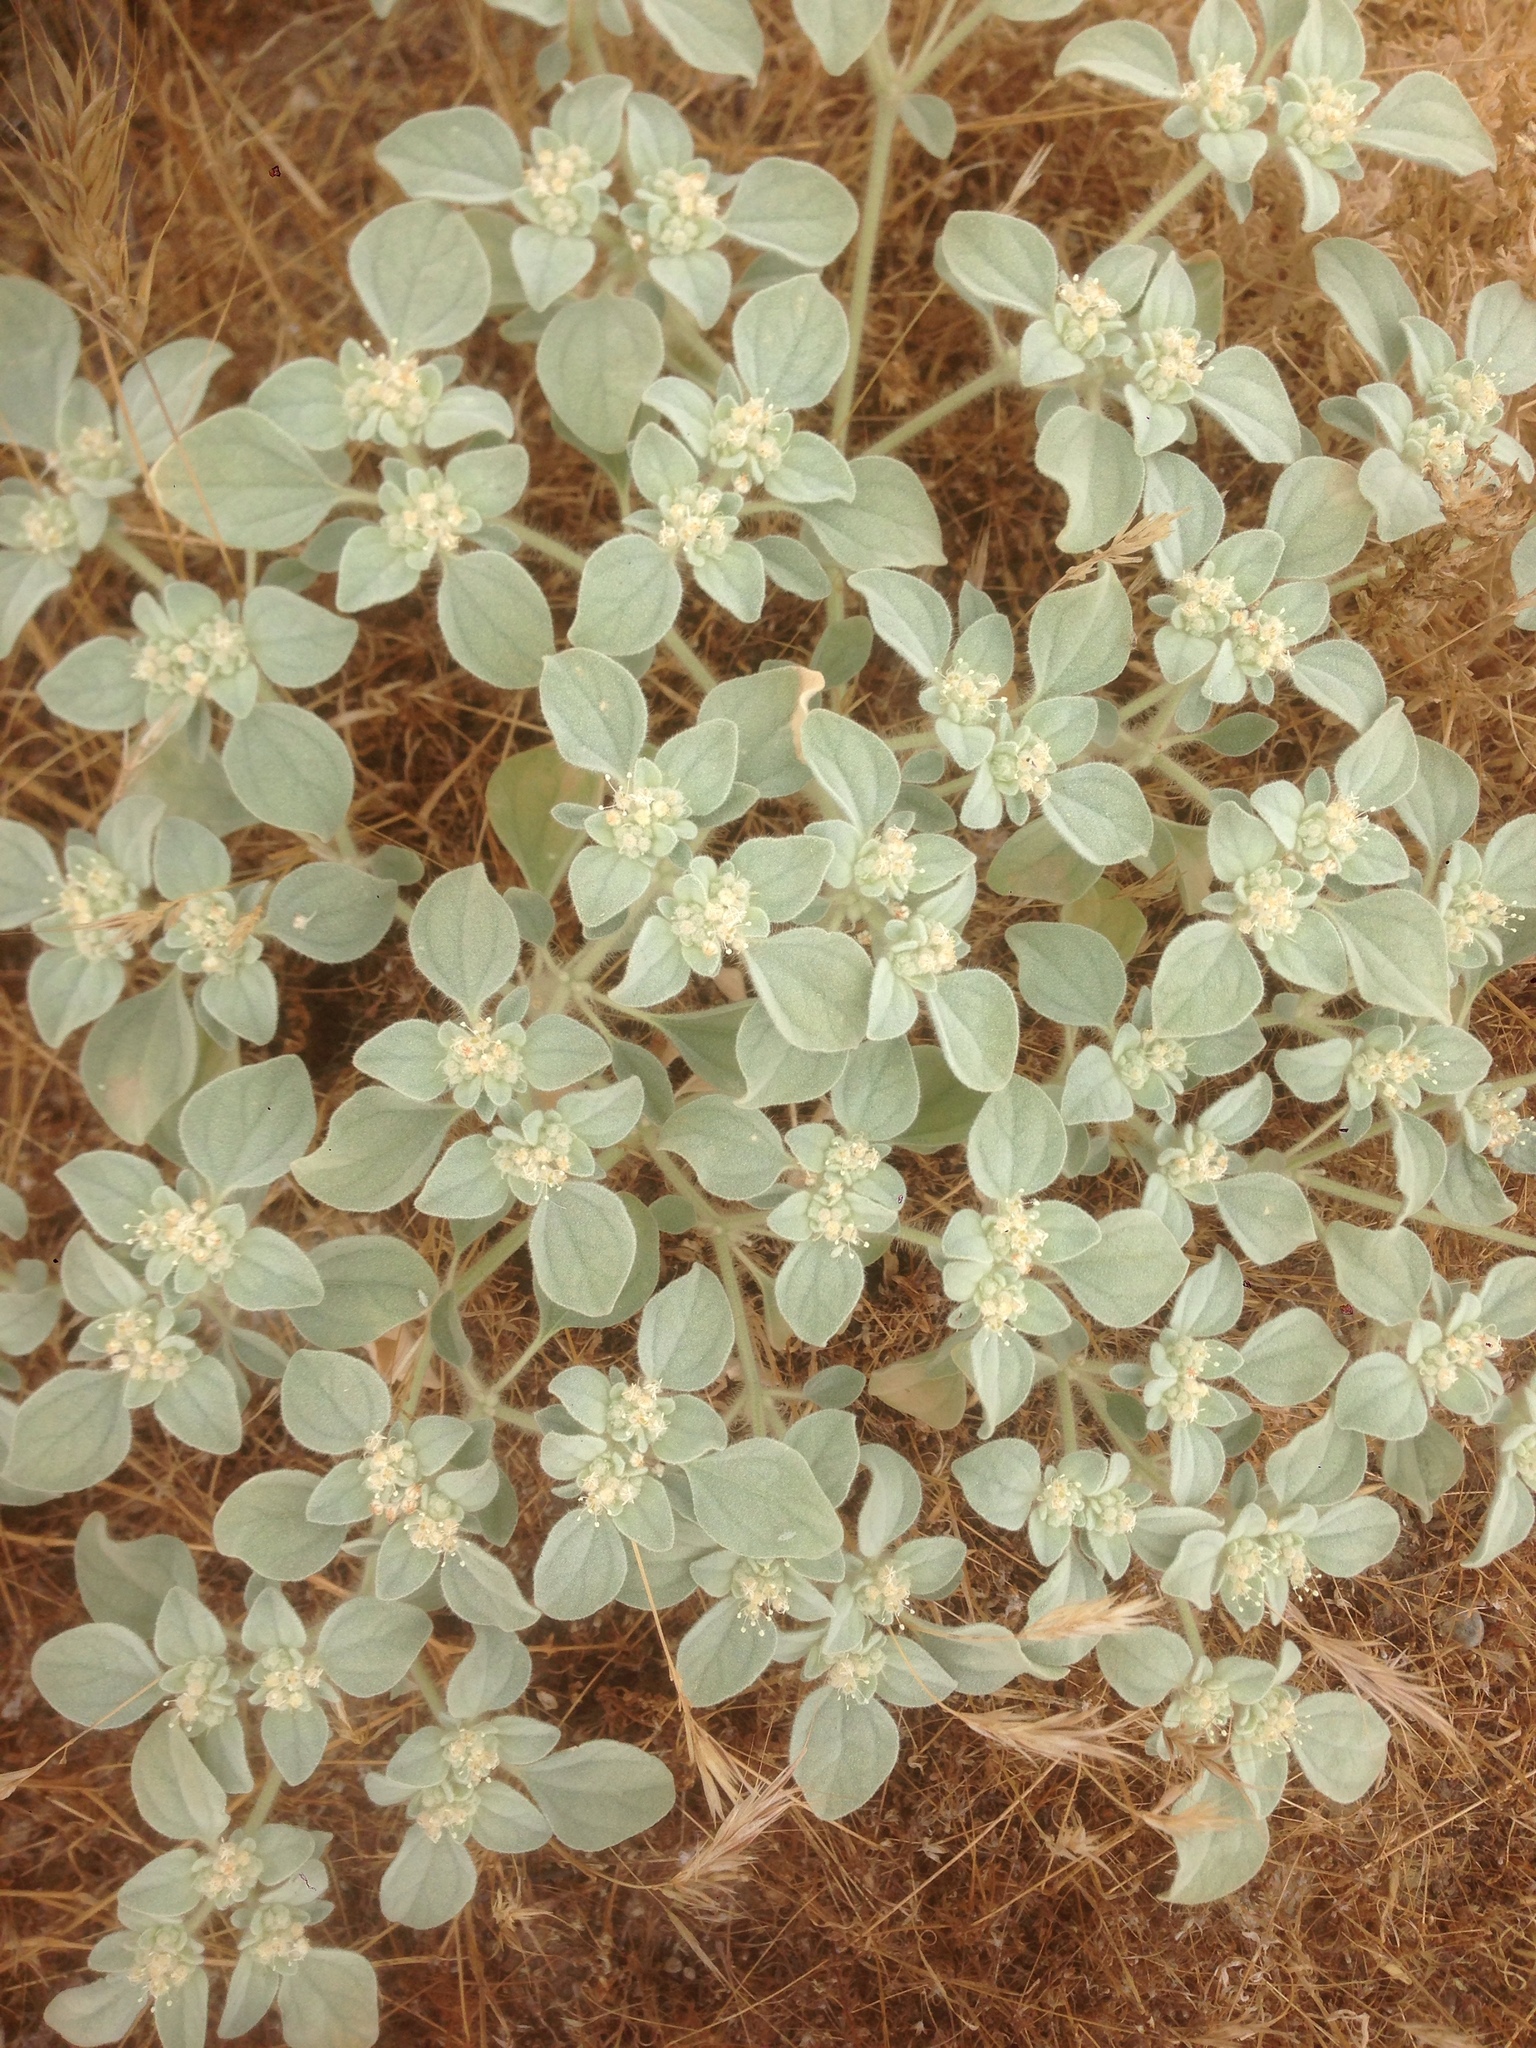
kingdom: Plantae
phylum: Tracheophyta
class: Magnoliopsida
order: Malpighiales
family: Euphorbiaceae
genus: Croton
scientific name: Croton setiger
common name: Dove weed
